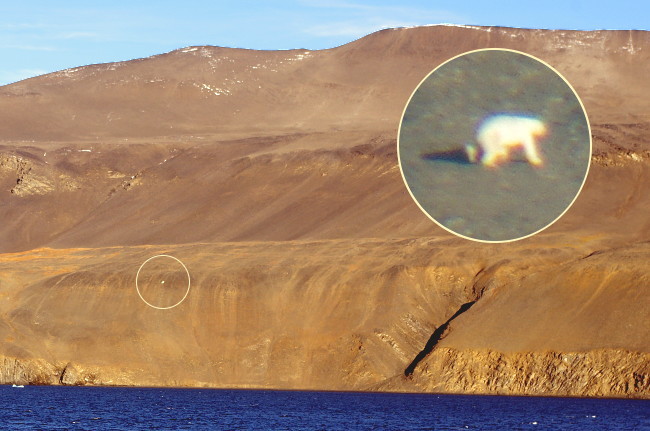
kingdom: Animalia
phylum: Chordata
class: Mammalia
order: Carnivora
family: Ursidae
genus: Ursus
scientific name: Ursus maritimus
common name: Polar bear
